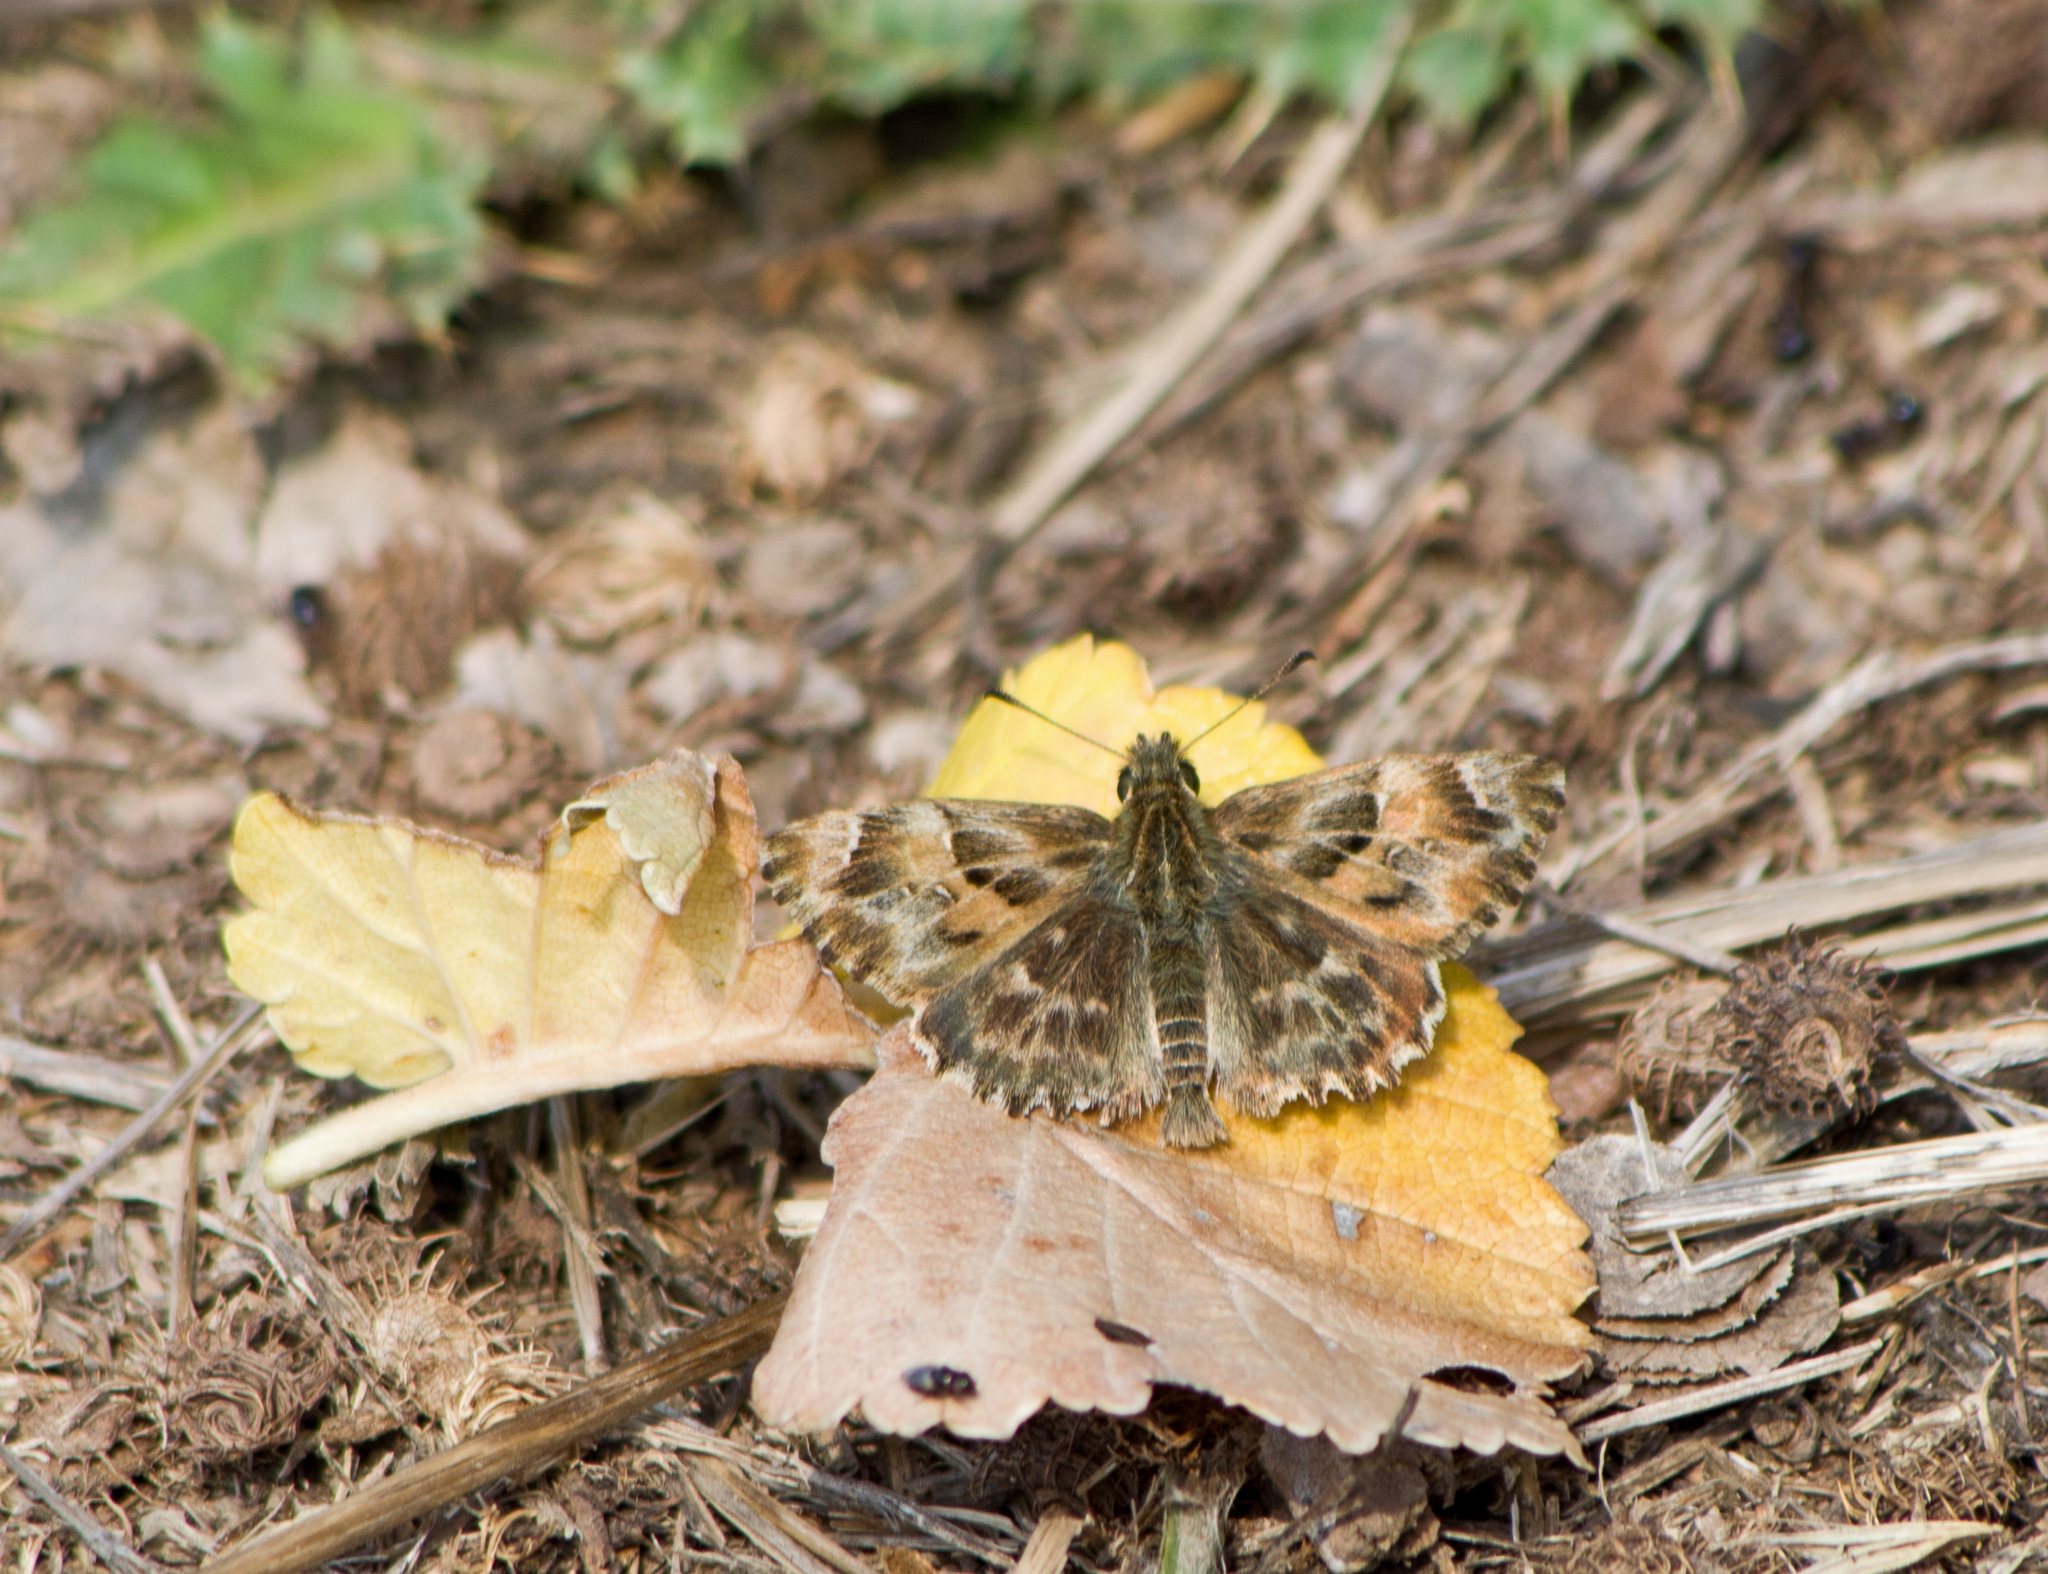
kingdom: Animalia
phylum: Arthropoda
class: Insecta
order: Lepidoptera
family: Hesperiidae
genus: Carcharodus
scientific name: Carcharodus alceae
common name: Mallow skipper
